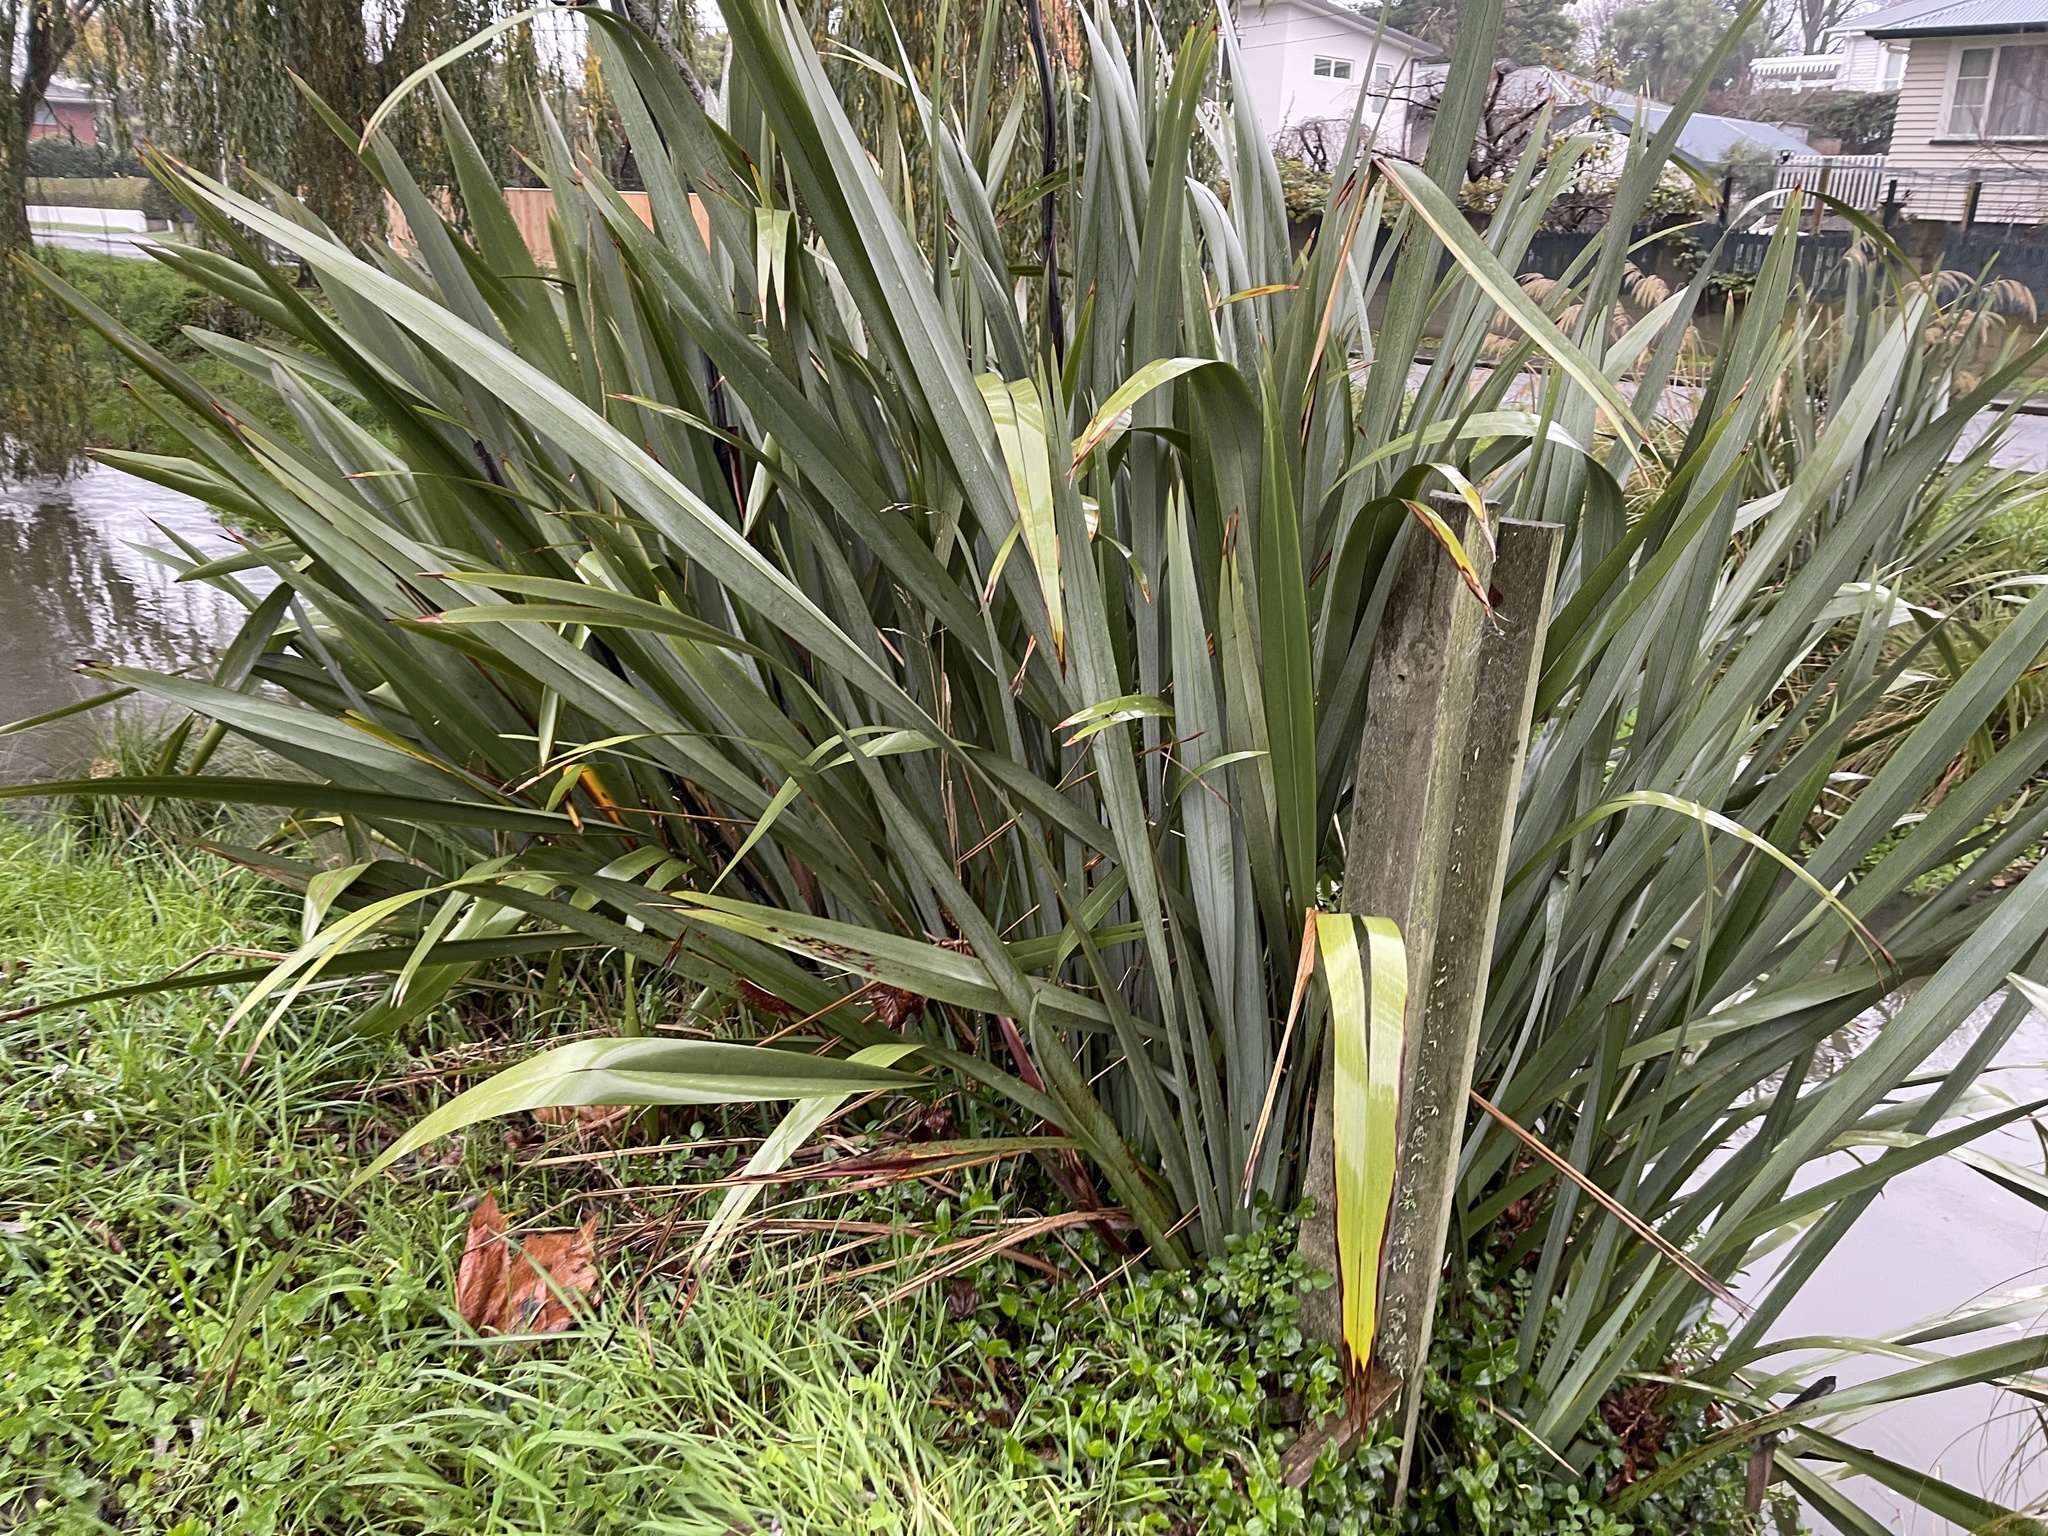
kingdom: Plantae
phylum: Tracheophyta
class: Liliopsida
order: Asparagales
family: Asphodelaceae
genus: Phormium
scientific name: Phormium tenax
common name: New zealand flax
